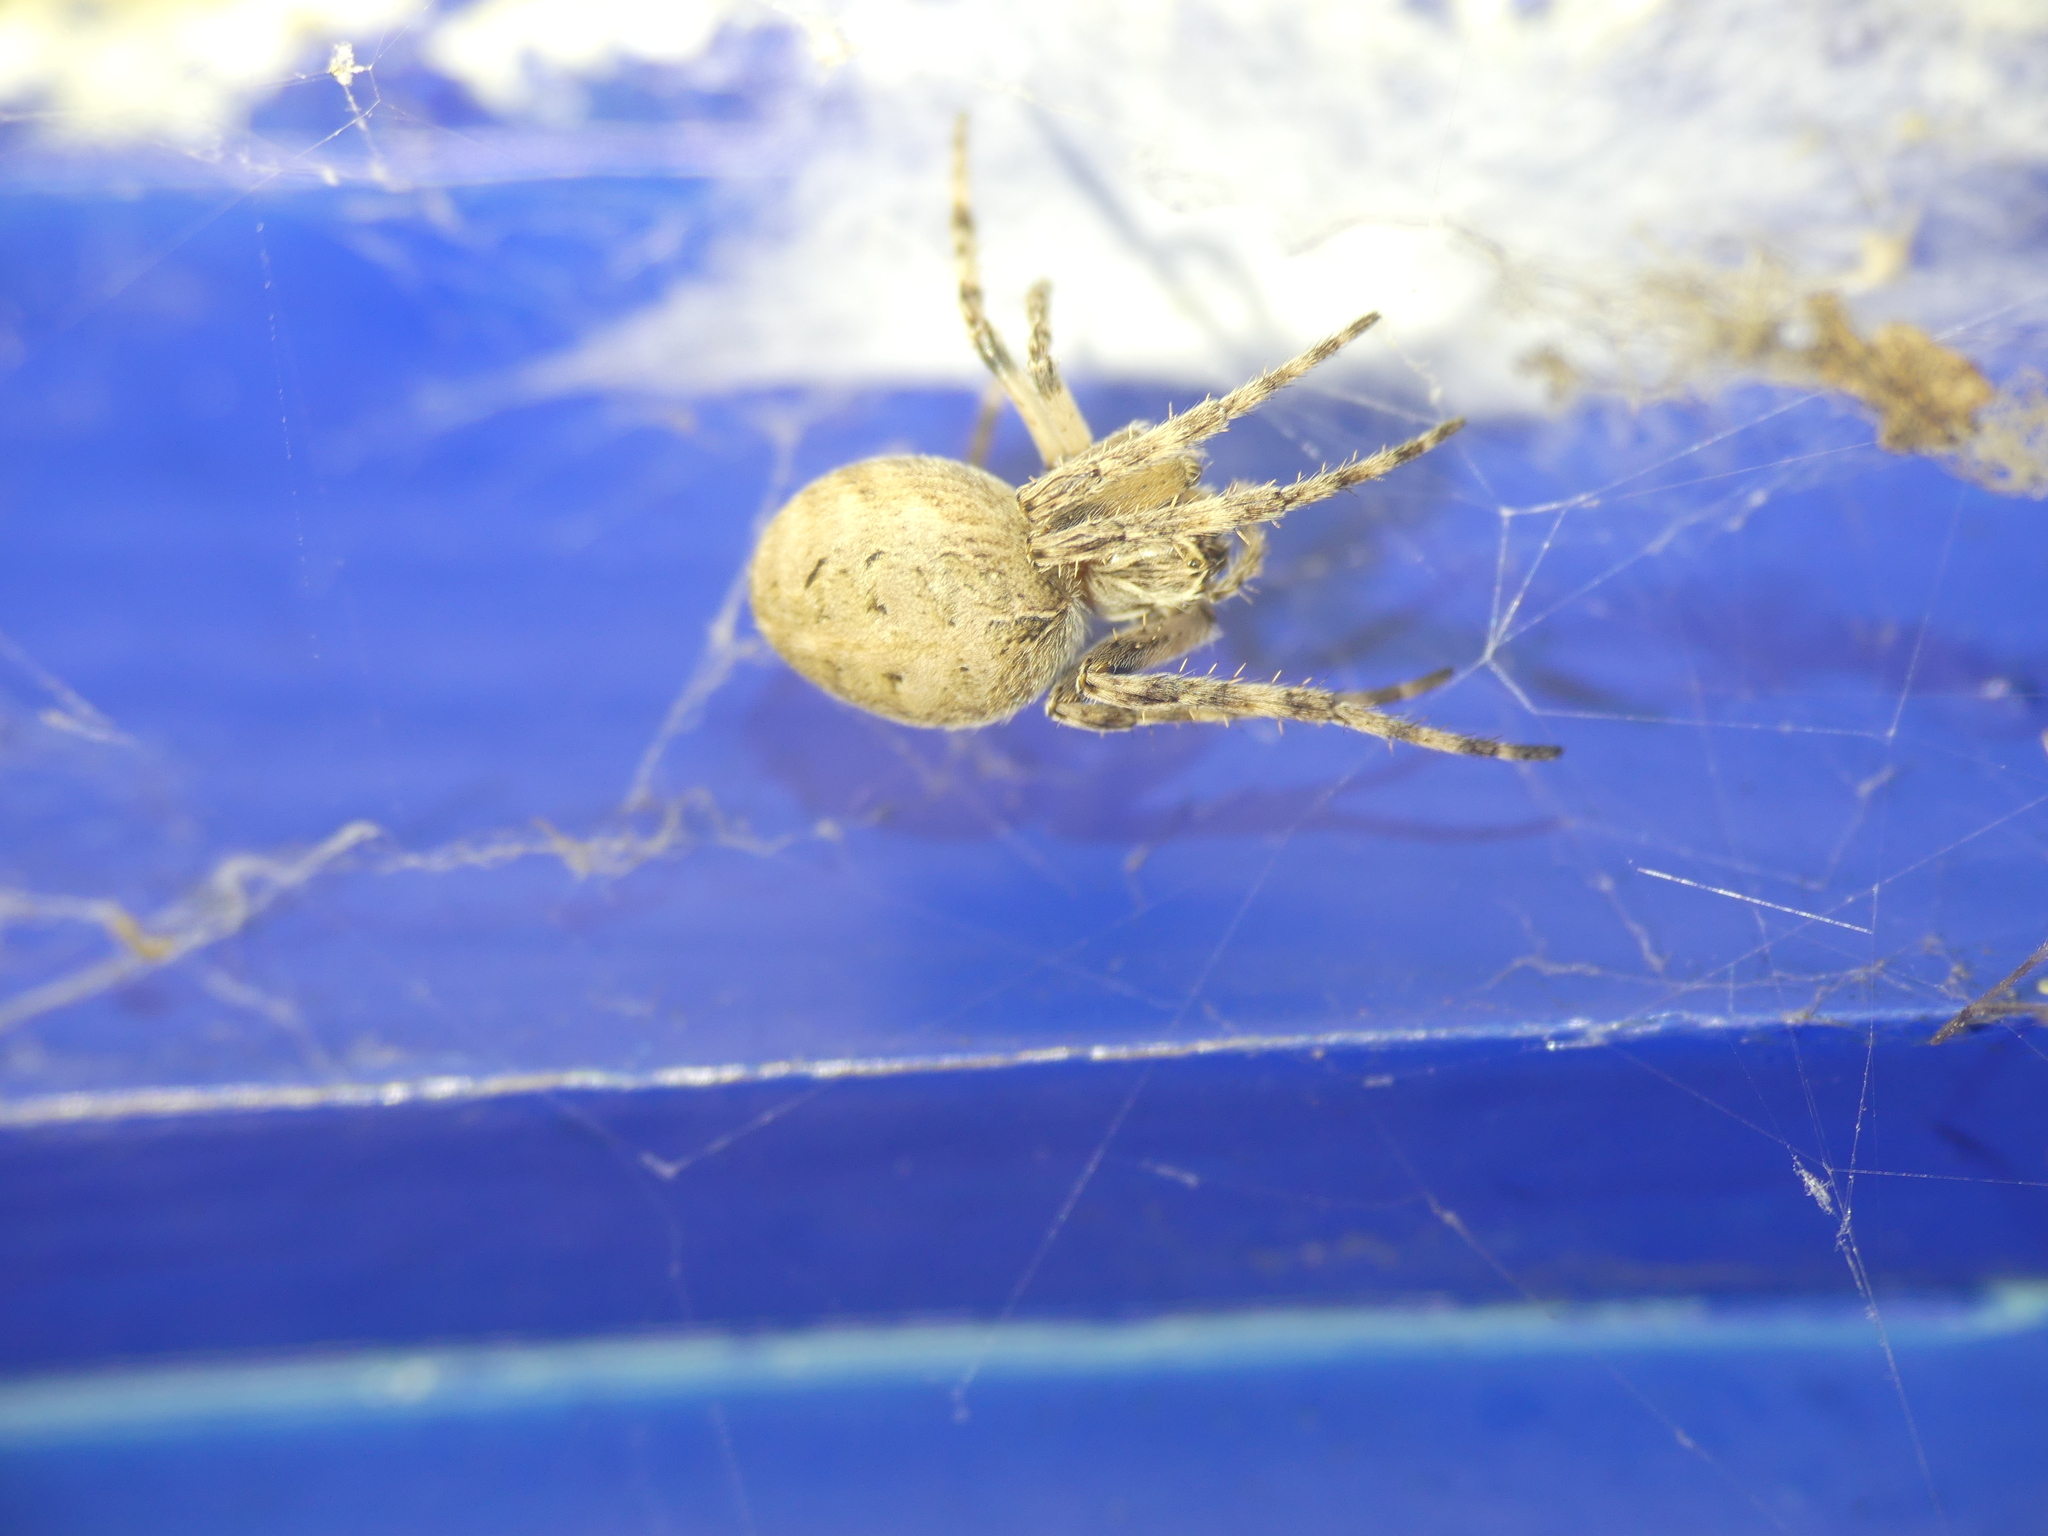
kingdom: Animalia
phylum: Arthropoda
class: Arachnida
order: Araneae
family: Araneidae
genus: Larinioides
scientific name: Larinioides sclopetarius
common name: Bridge orbweaver
